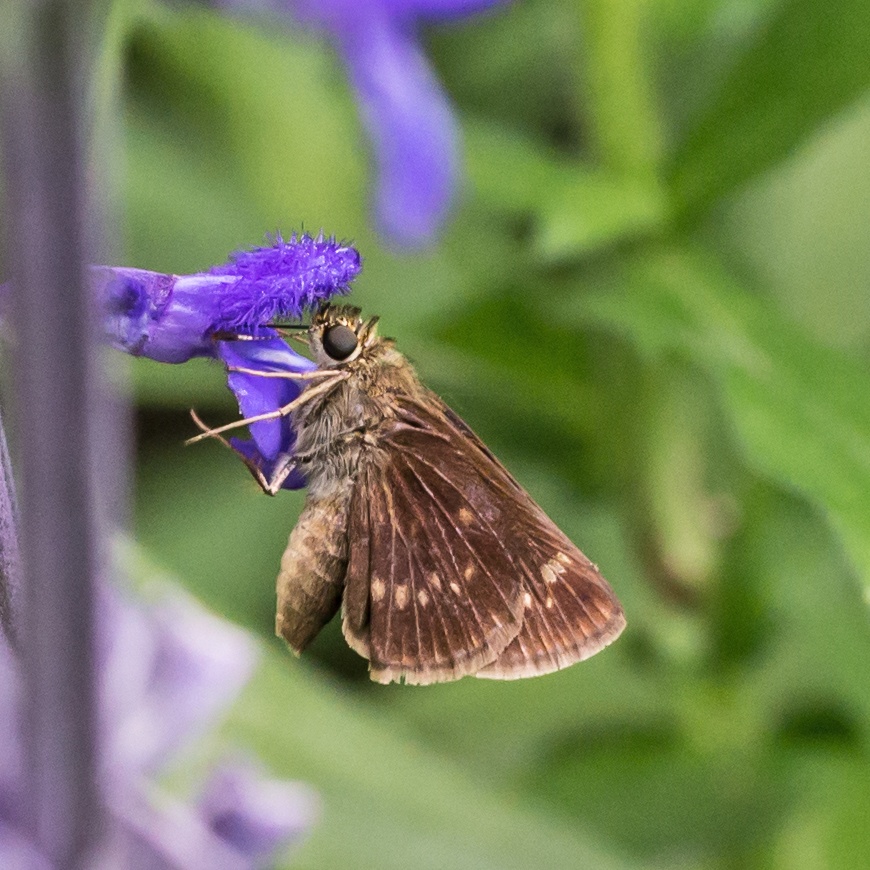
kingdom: Animalia
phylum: Arthropoda
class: Insecta
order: Lepidoptera
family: Hesperiidae
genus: Vernia
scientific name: Vernia verna
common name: Little glassywing
